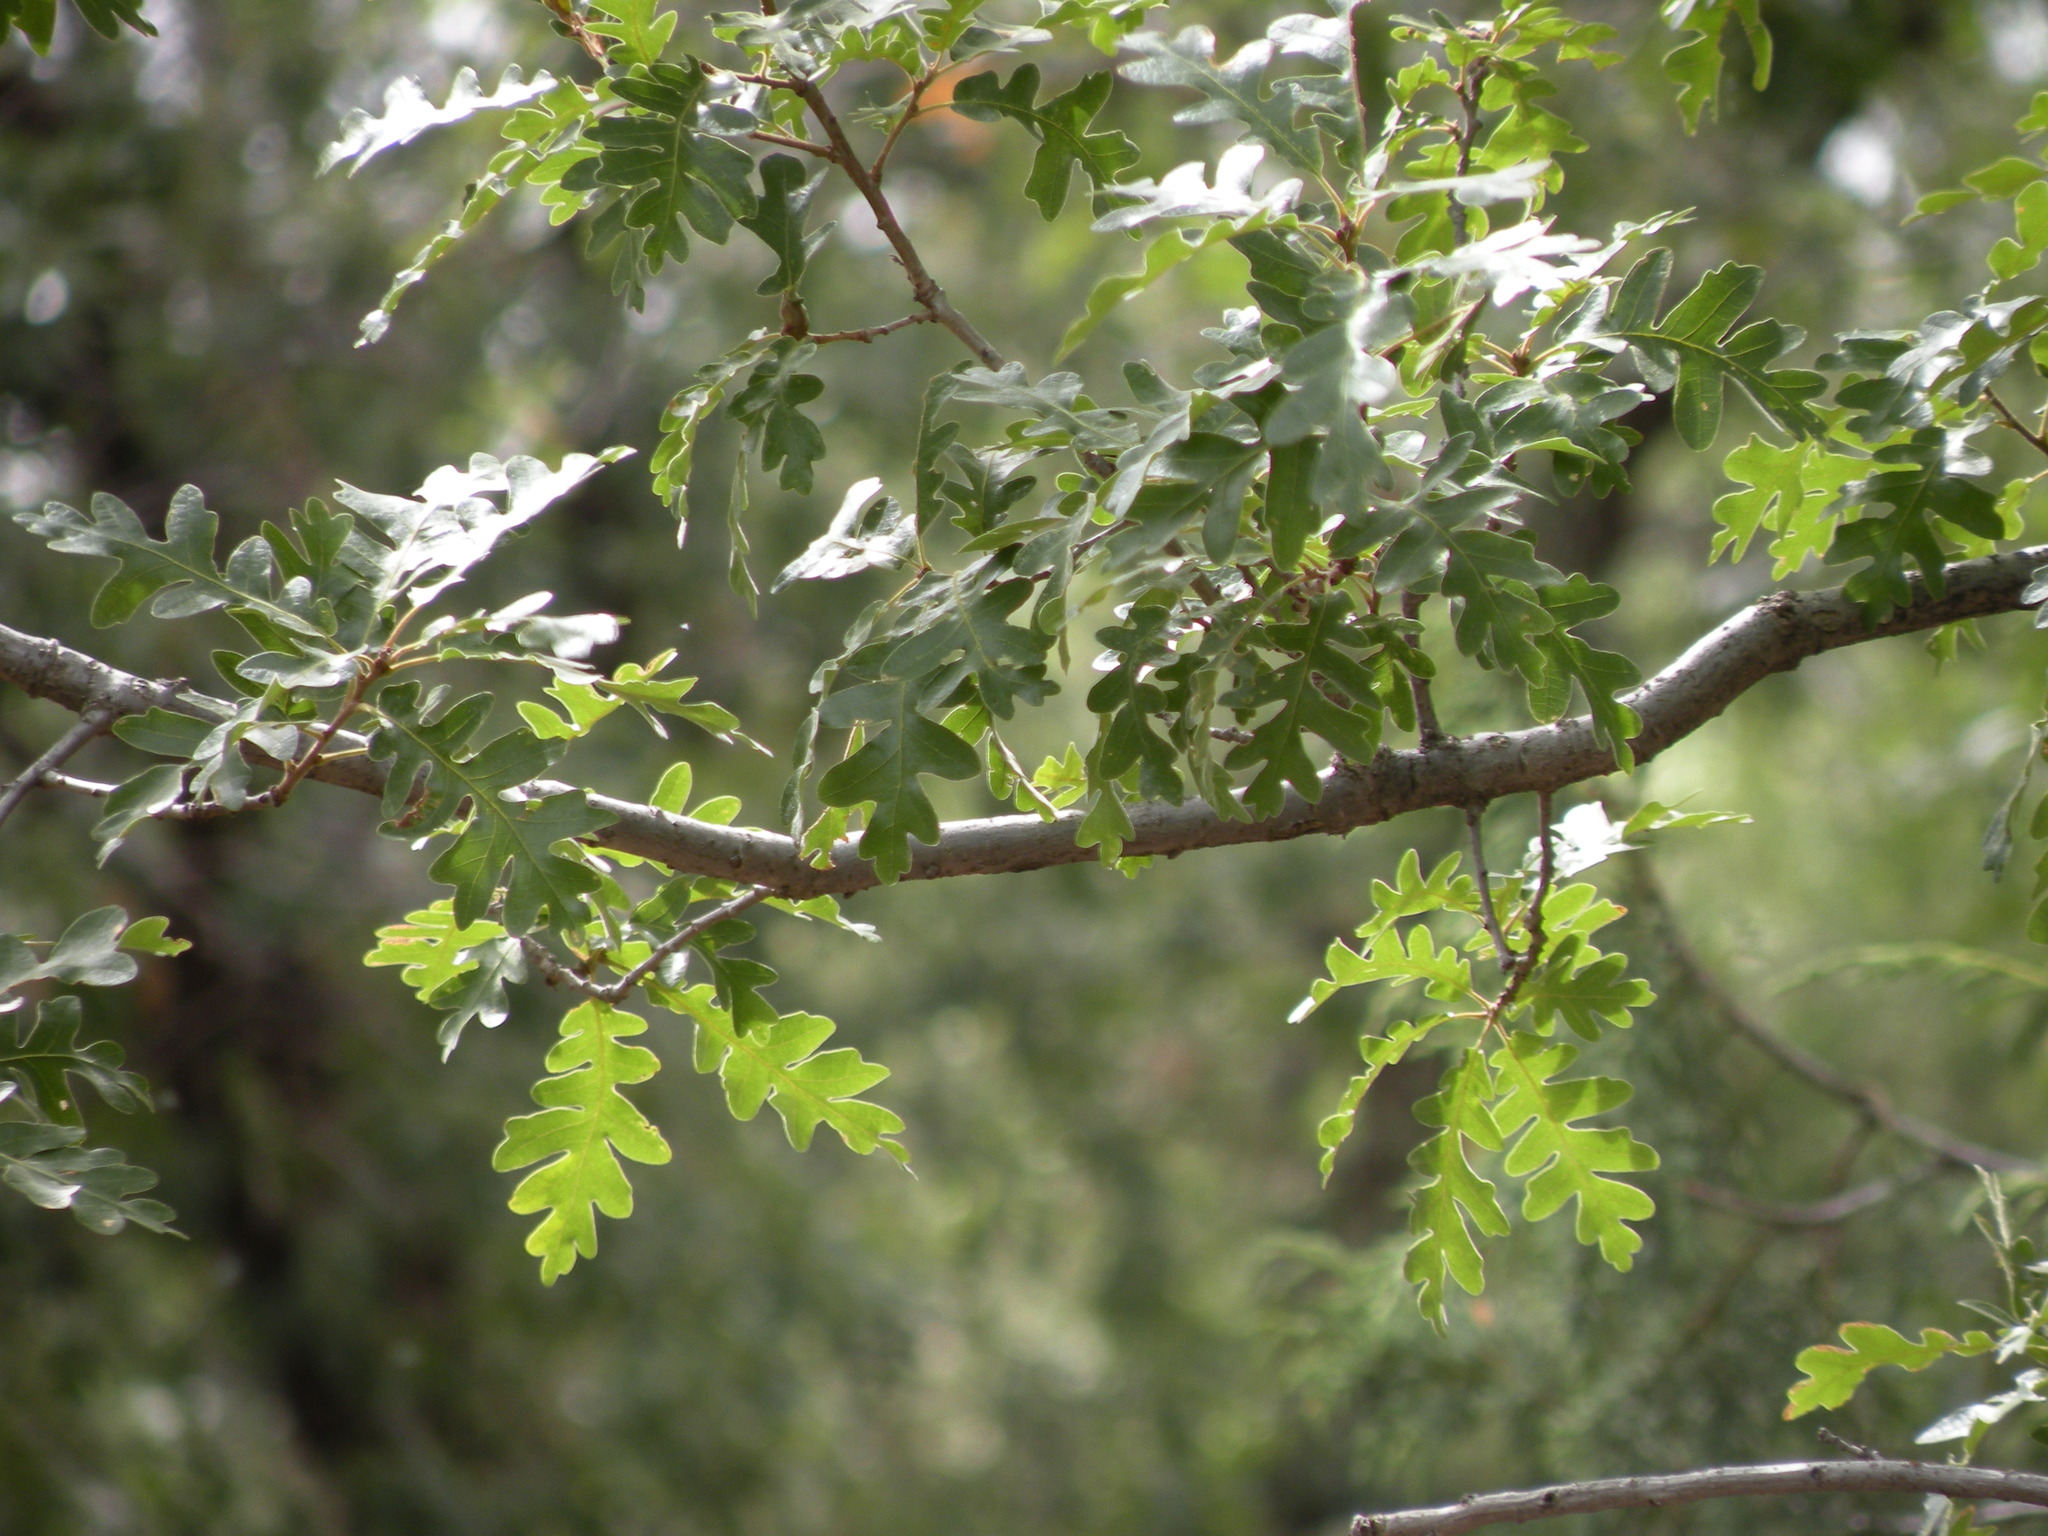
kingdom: Plantae
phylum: Tracheophyta
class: Magnoliopsida
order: Fagales
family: Fagaceae
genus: Quercus
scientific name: Quercus gambelii
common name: Gambel oak
